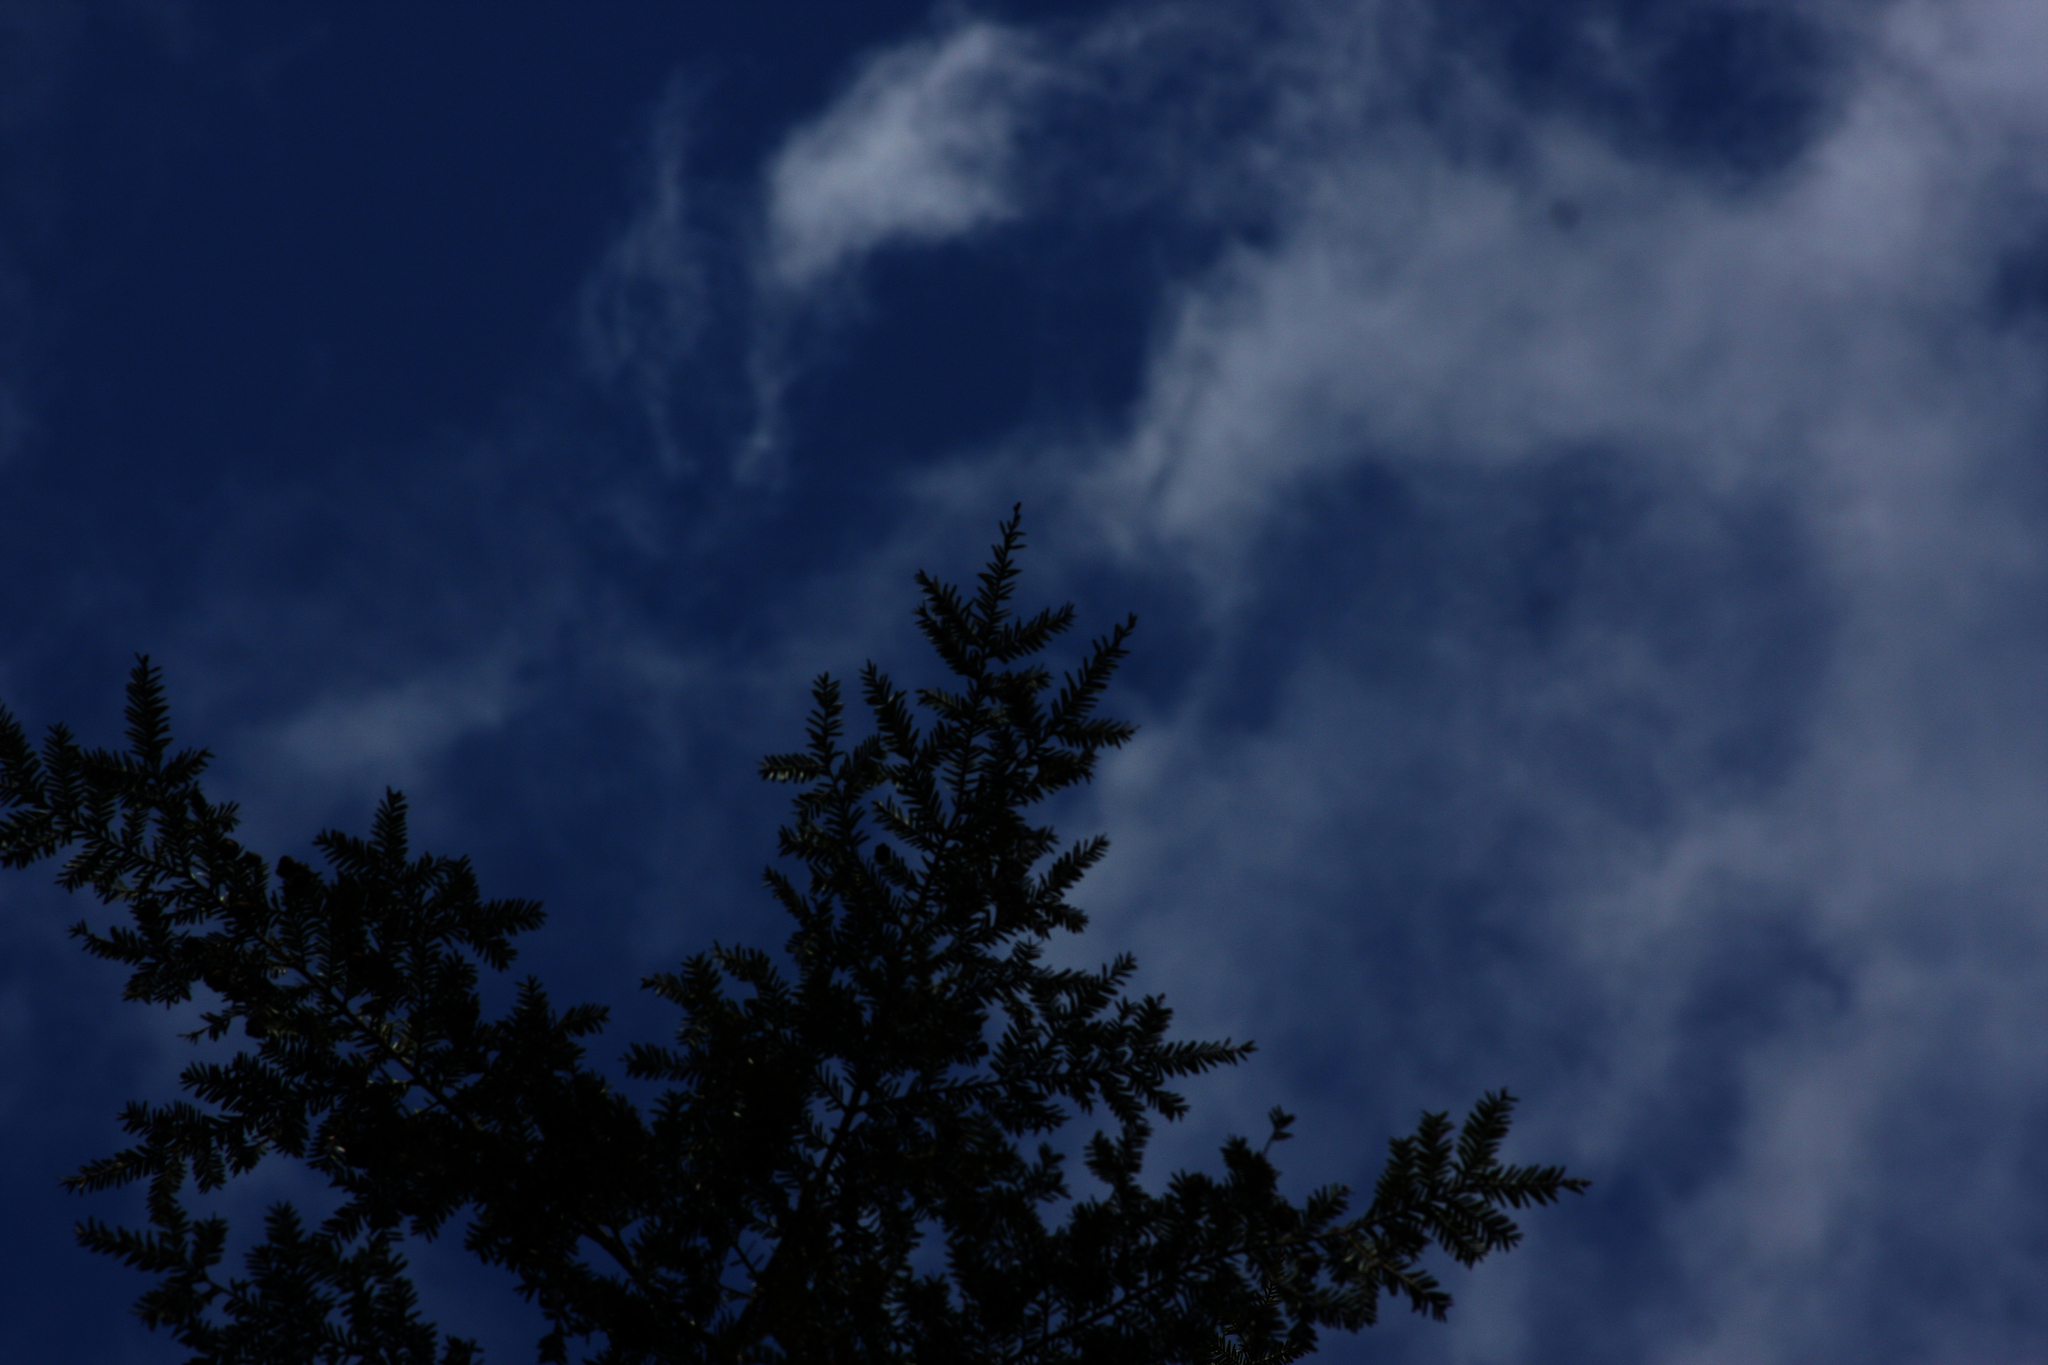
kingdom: Plantae
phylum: Tracheophyta
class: Pinopsida
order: Pinales
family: Pinaceae
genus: Tsuga
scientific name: Tsuga canadensis
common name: Eastern hemlock
